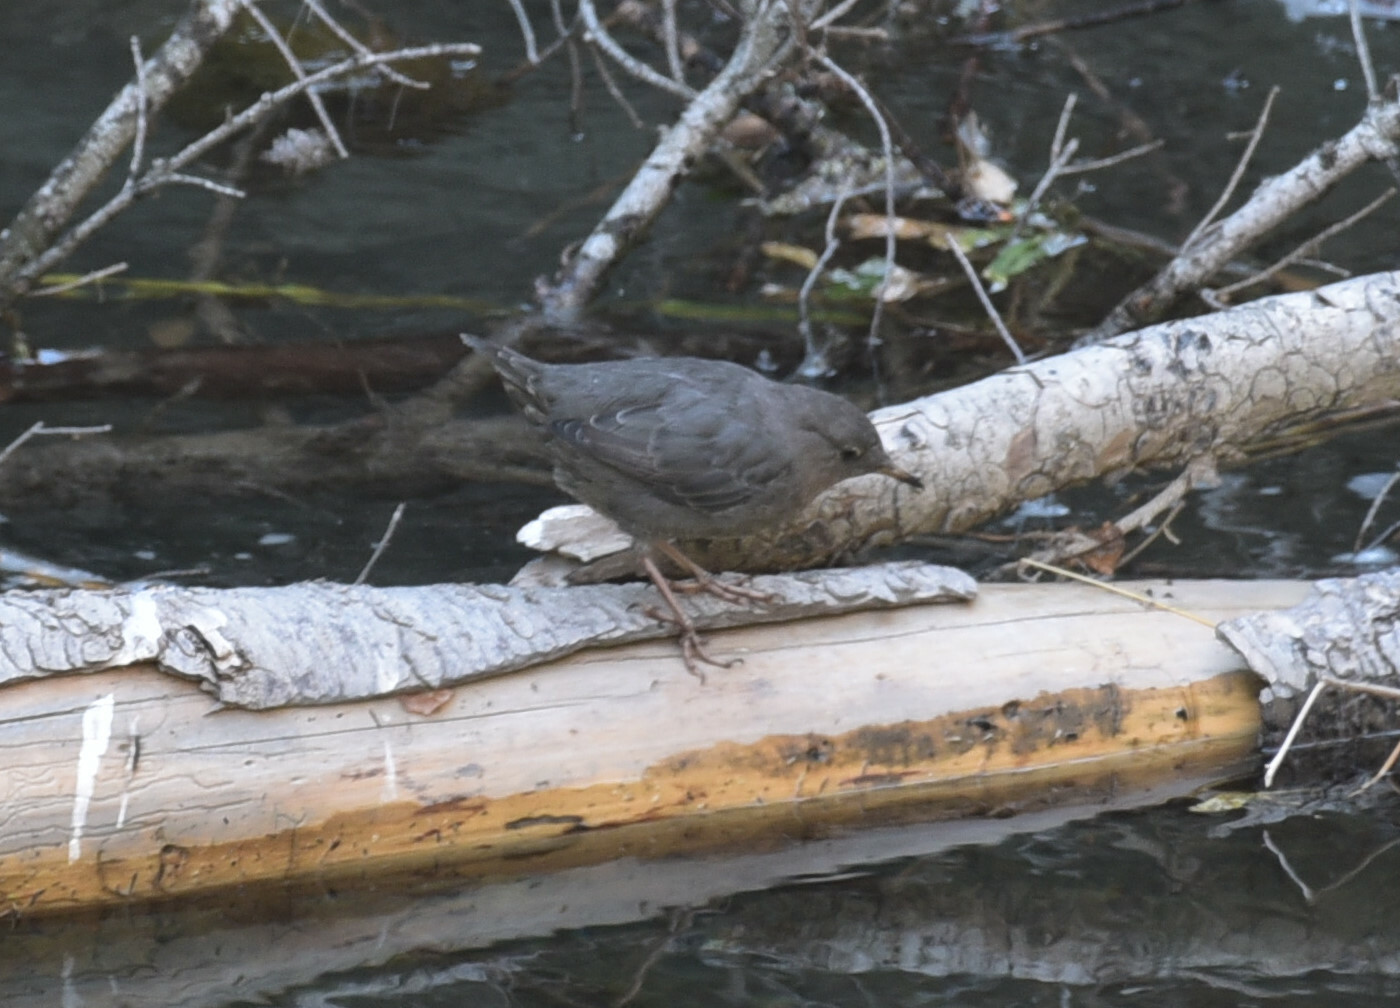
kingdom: Animalia
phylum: Chordata
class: Aves
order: Passeriformes
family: Cinclidae
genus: Cinclus
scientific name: Cinclus mexicanus
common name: American dipper
